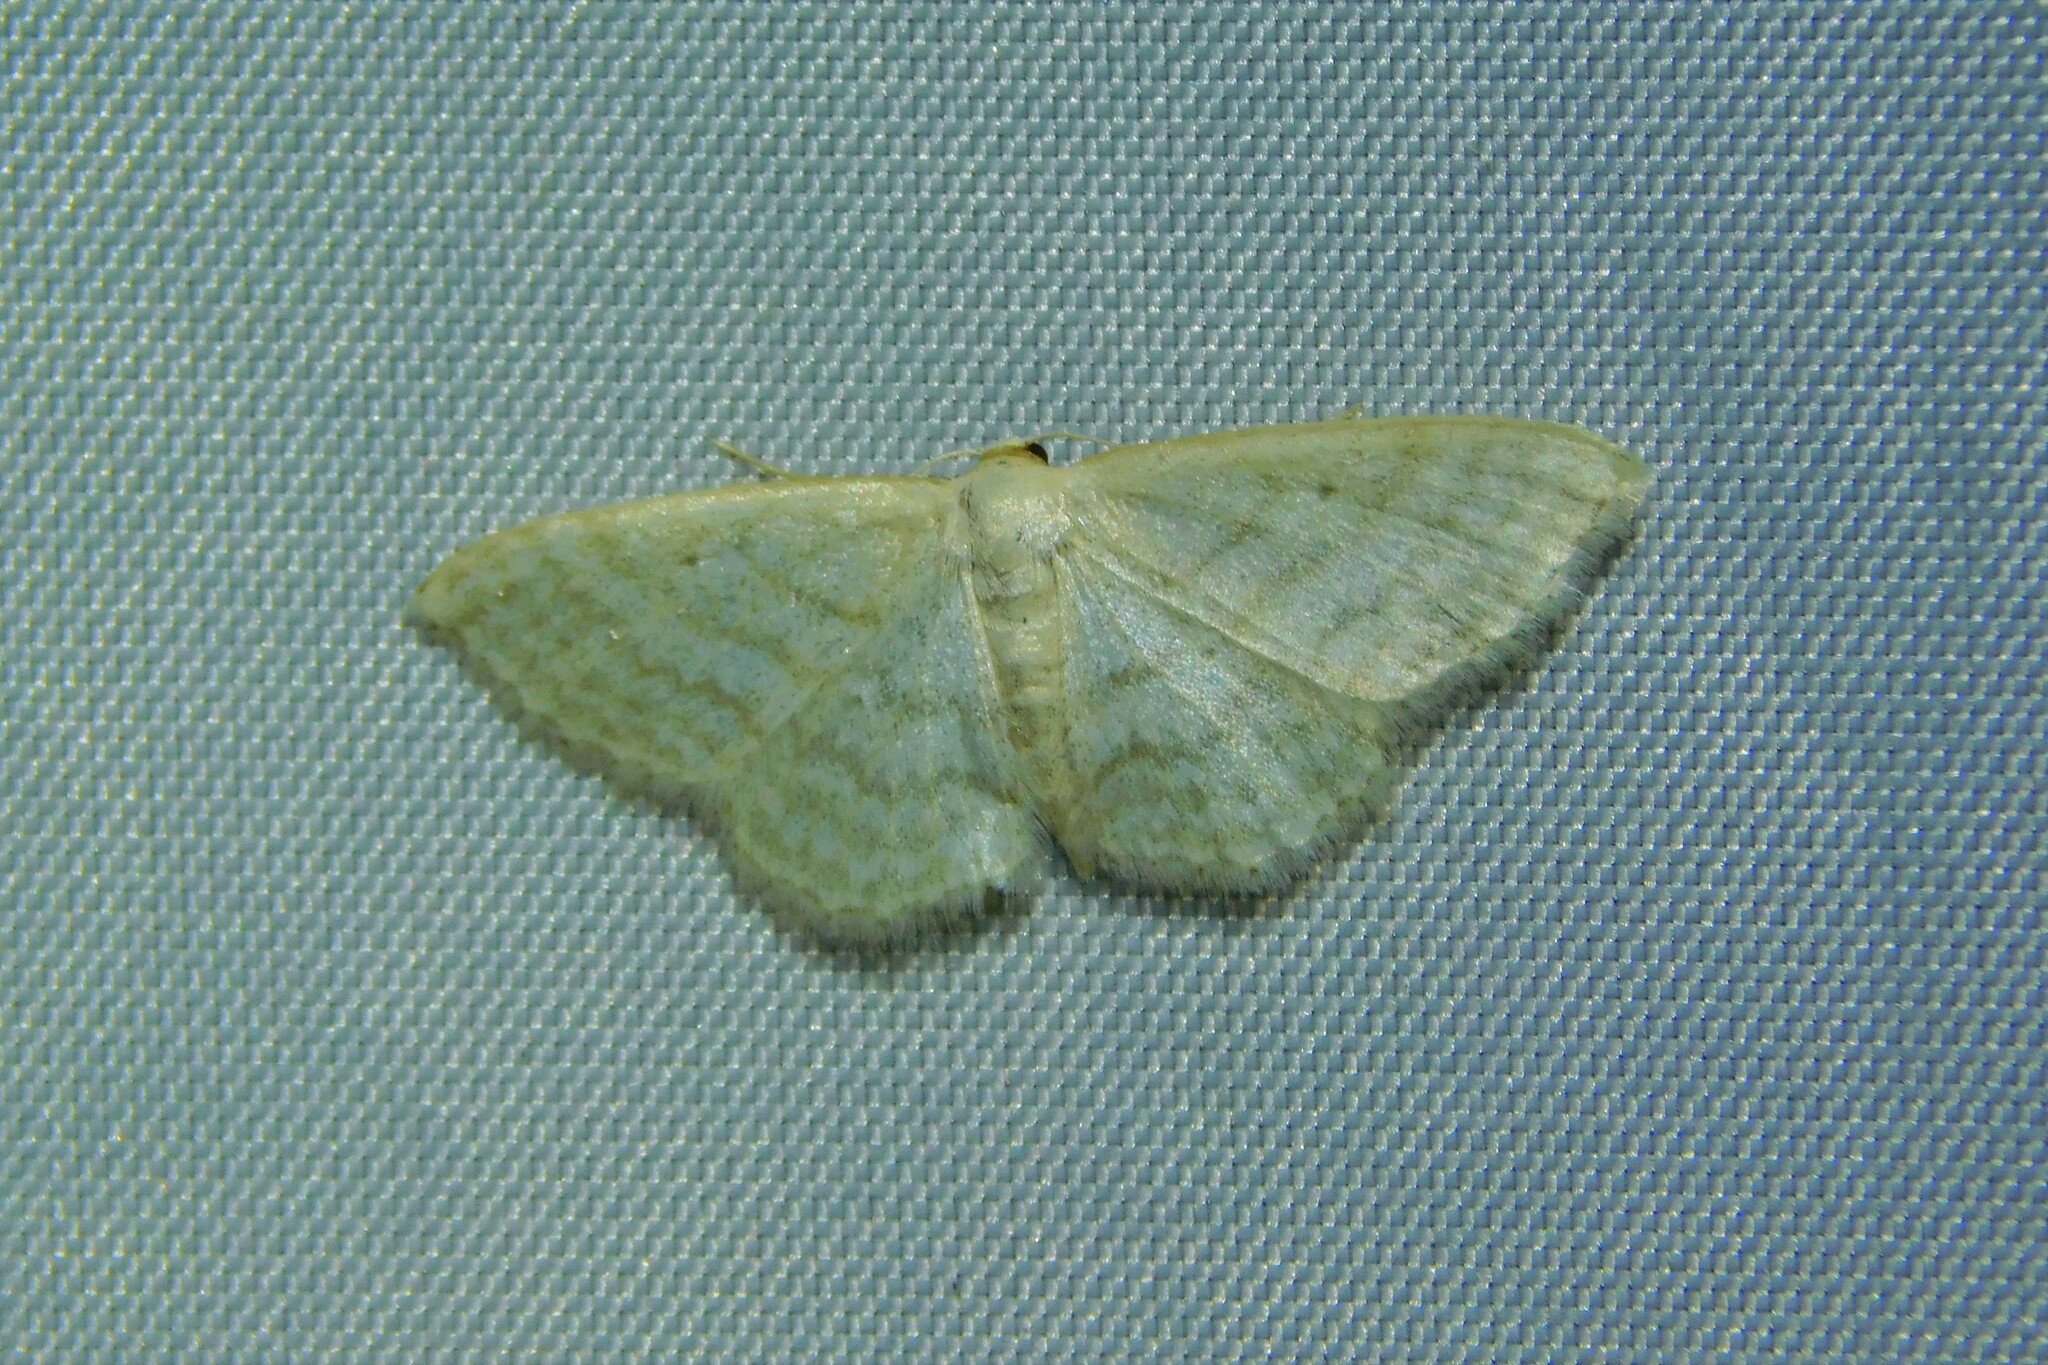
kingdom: Animalia
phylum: Arthropoda
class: Insecta
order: Lepidoptera
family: Geometridae
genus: Idaea
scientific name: Idaea subsericeata
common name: Satin wave
